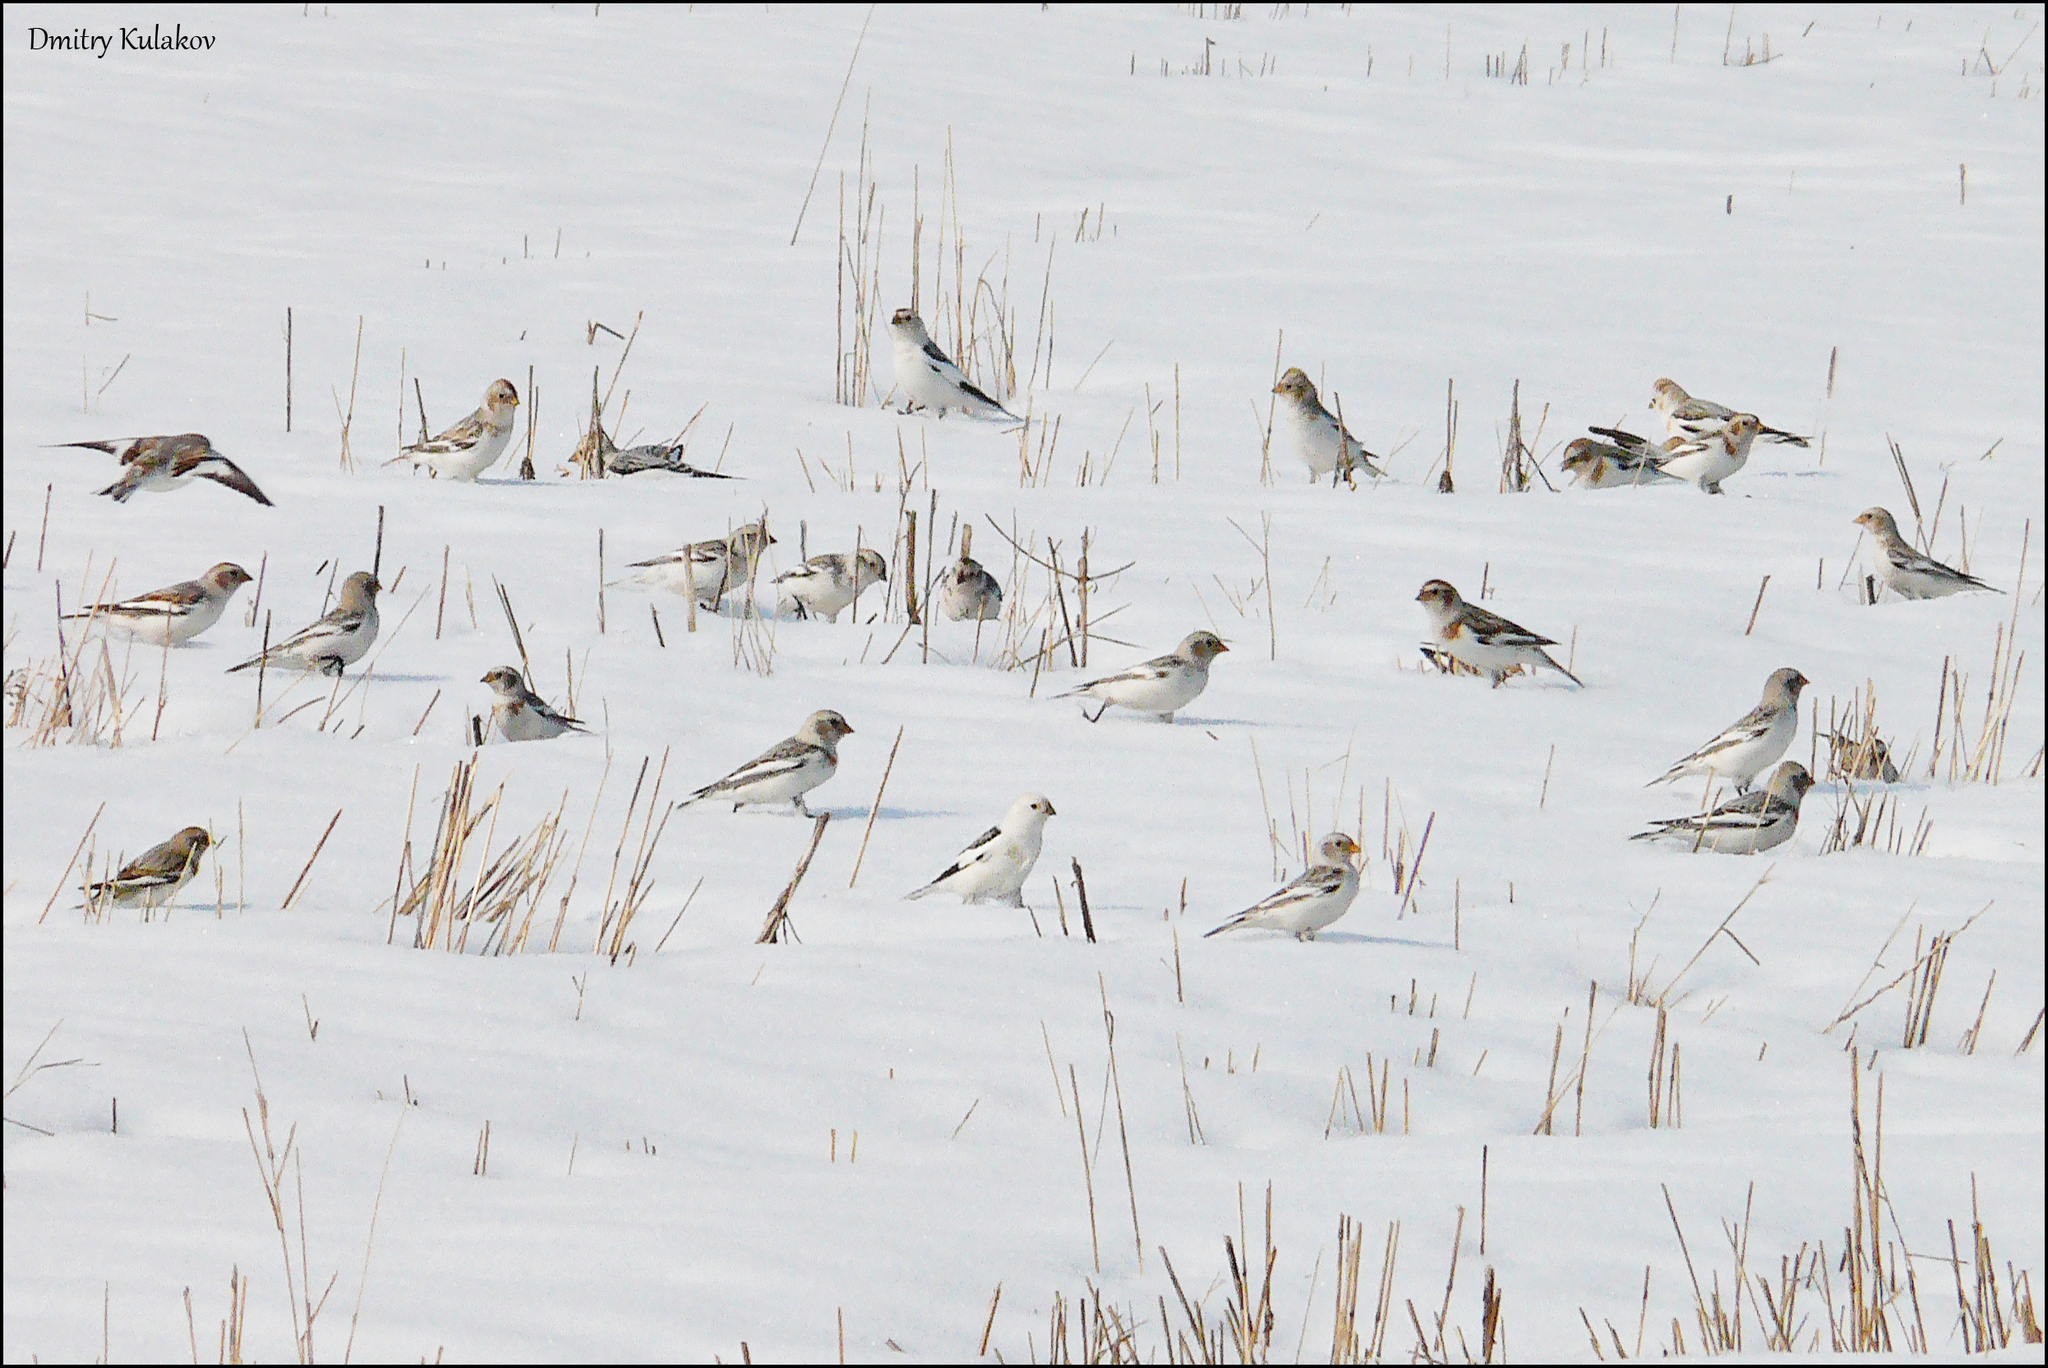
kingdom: Animalia
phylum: Chordata
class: Aves
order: Passeriformes
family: Calcariidae
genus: Plectrophenax
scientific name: Plectrophenax nivalis
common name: Snow bunting
